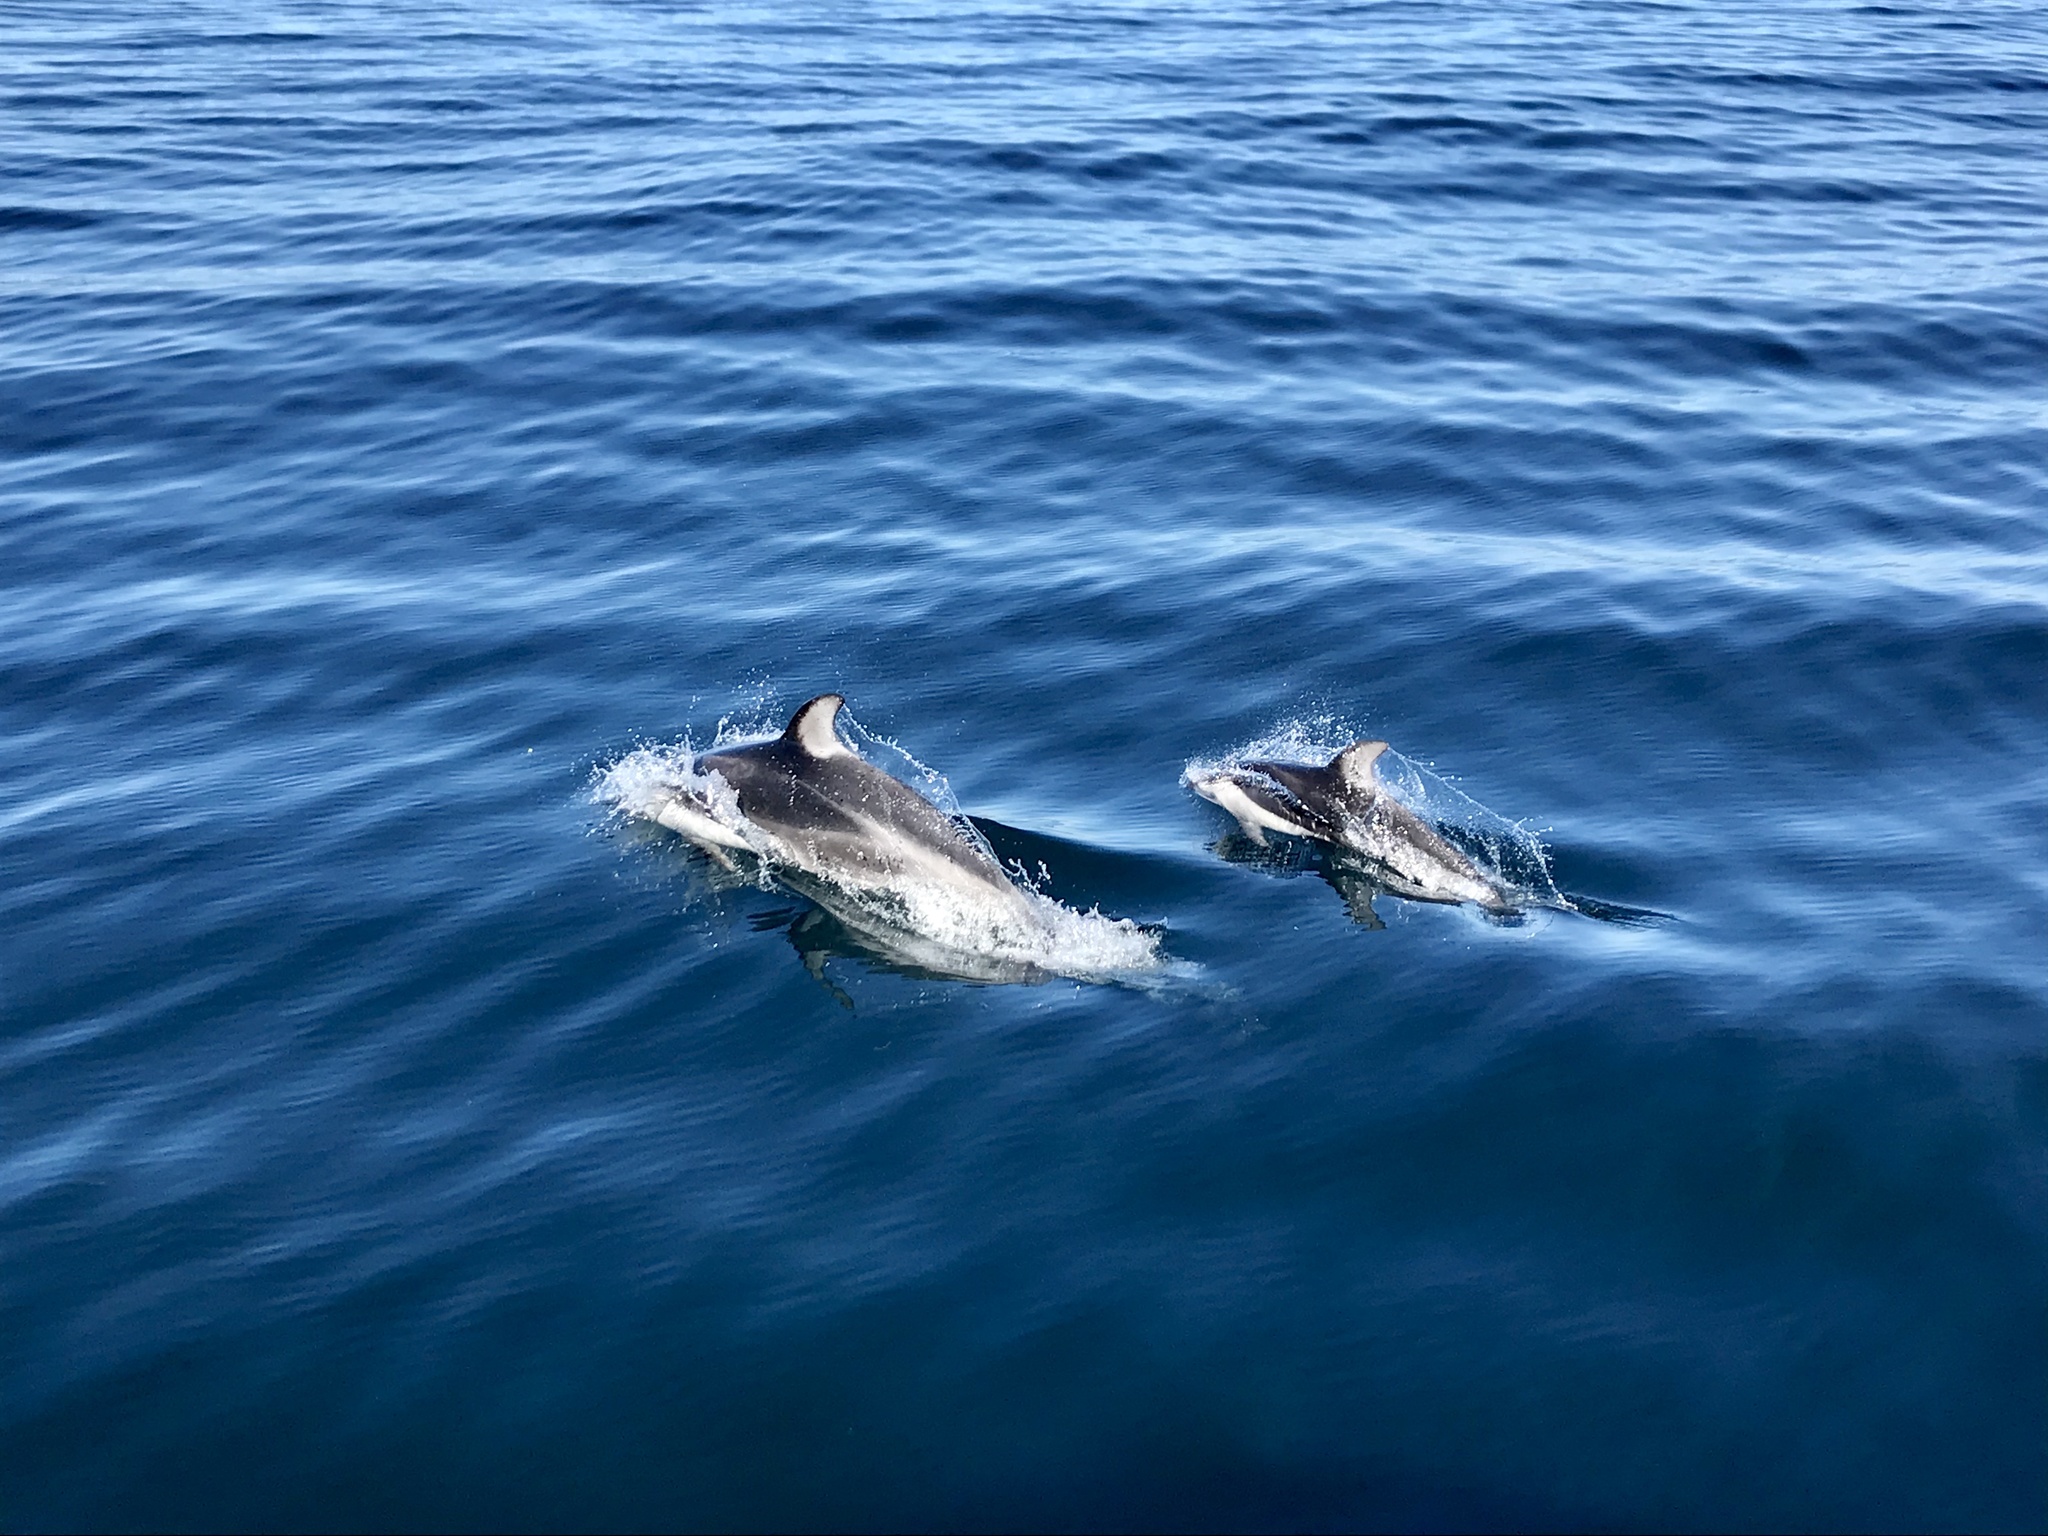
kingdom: Animalia
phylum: Chordata
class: Mammalia
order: Cetacea
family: Delphinidae
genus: Lagenorhynchus
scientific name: Lagenorhynchus obliquidens
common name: Pacific white-sided dolphin
